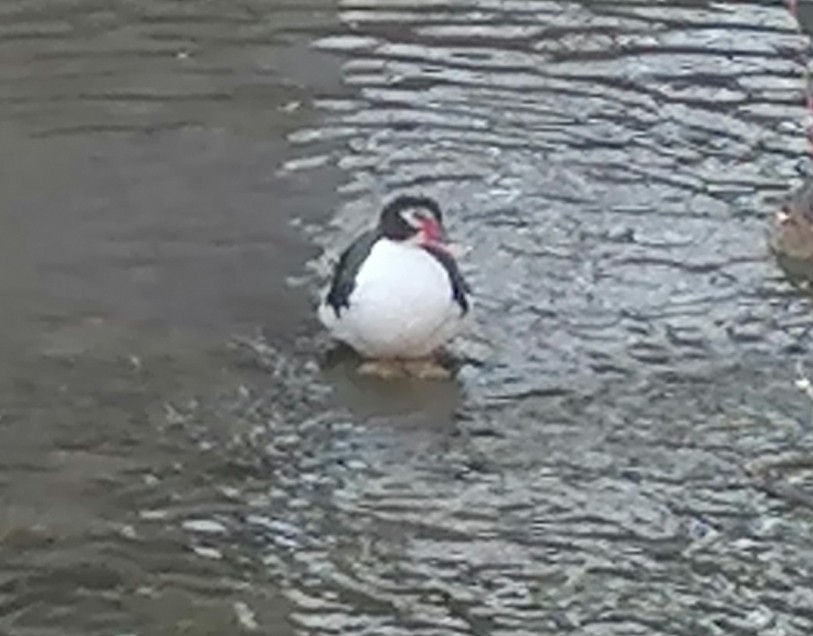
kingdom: Animalia
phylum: Chordata
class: Aves
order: Anseriformes
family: Anatidae
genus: Cairina
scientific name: Cairina moschata
